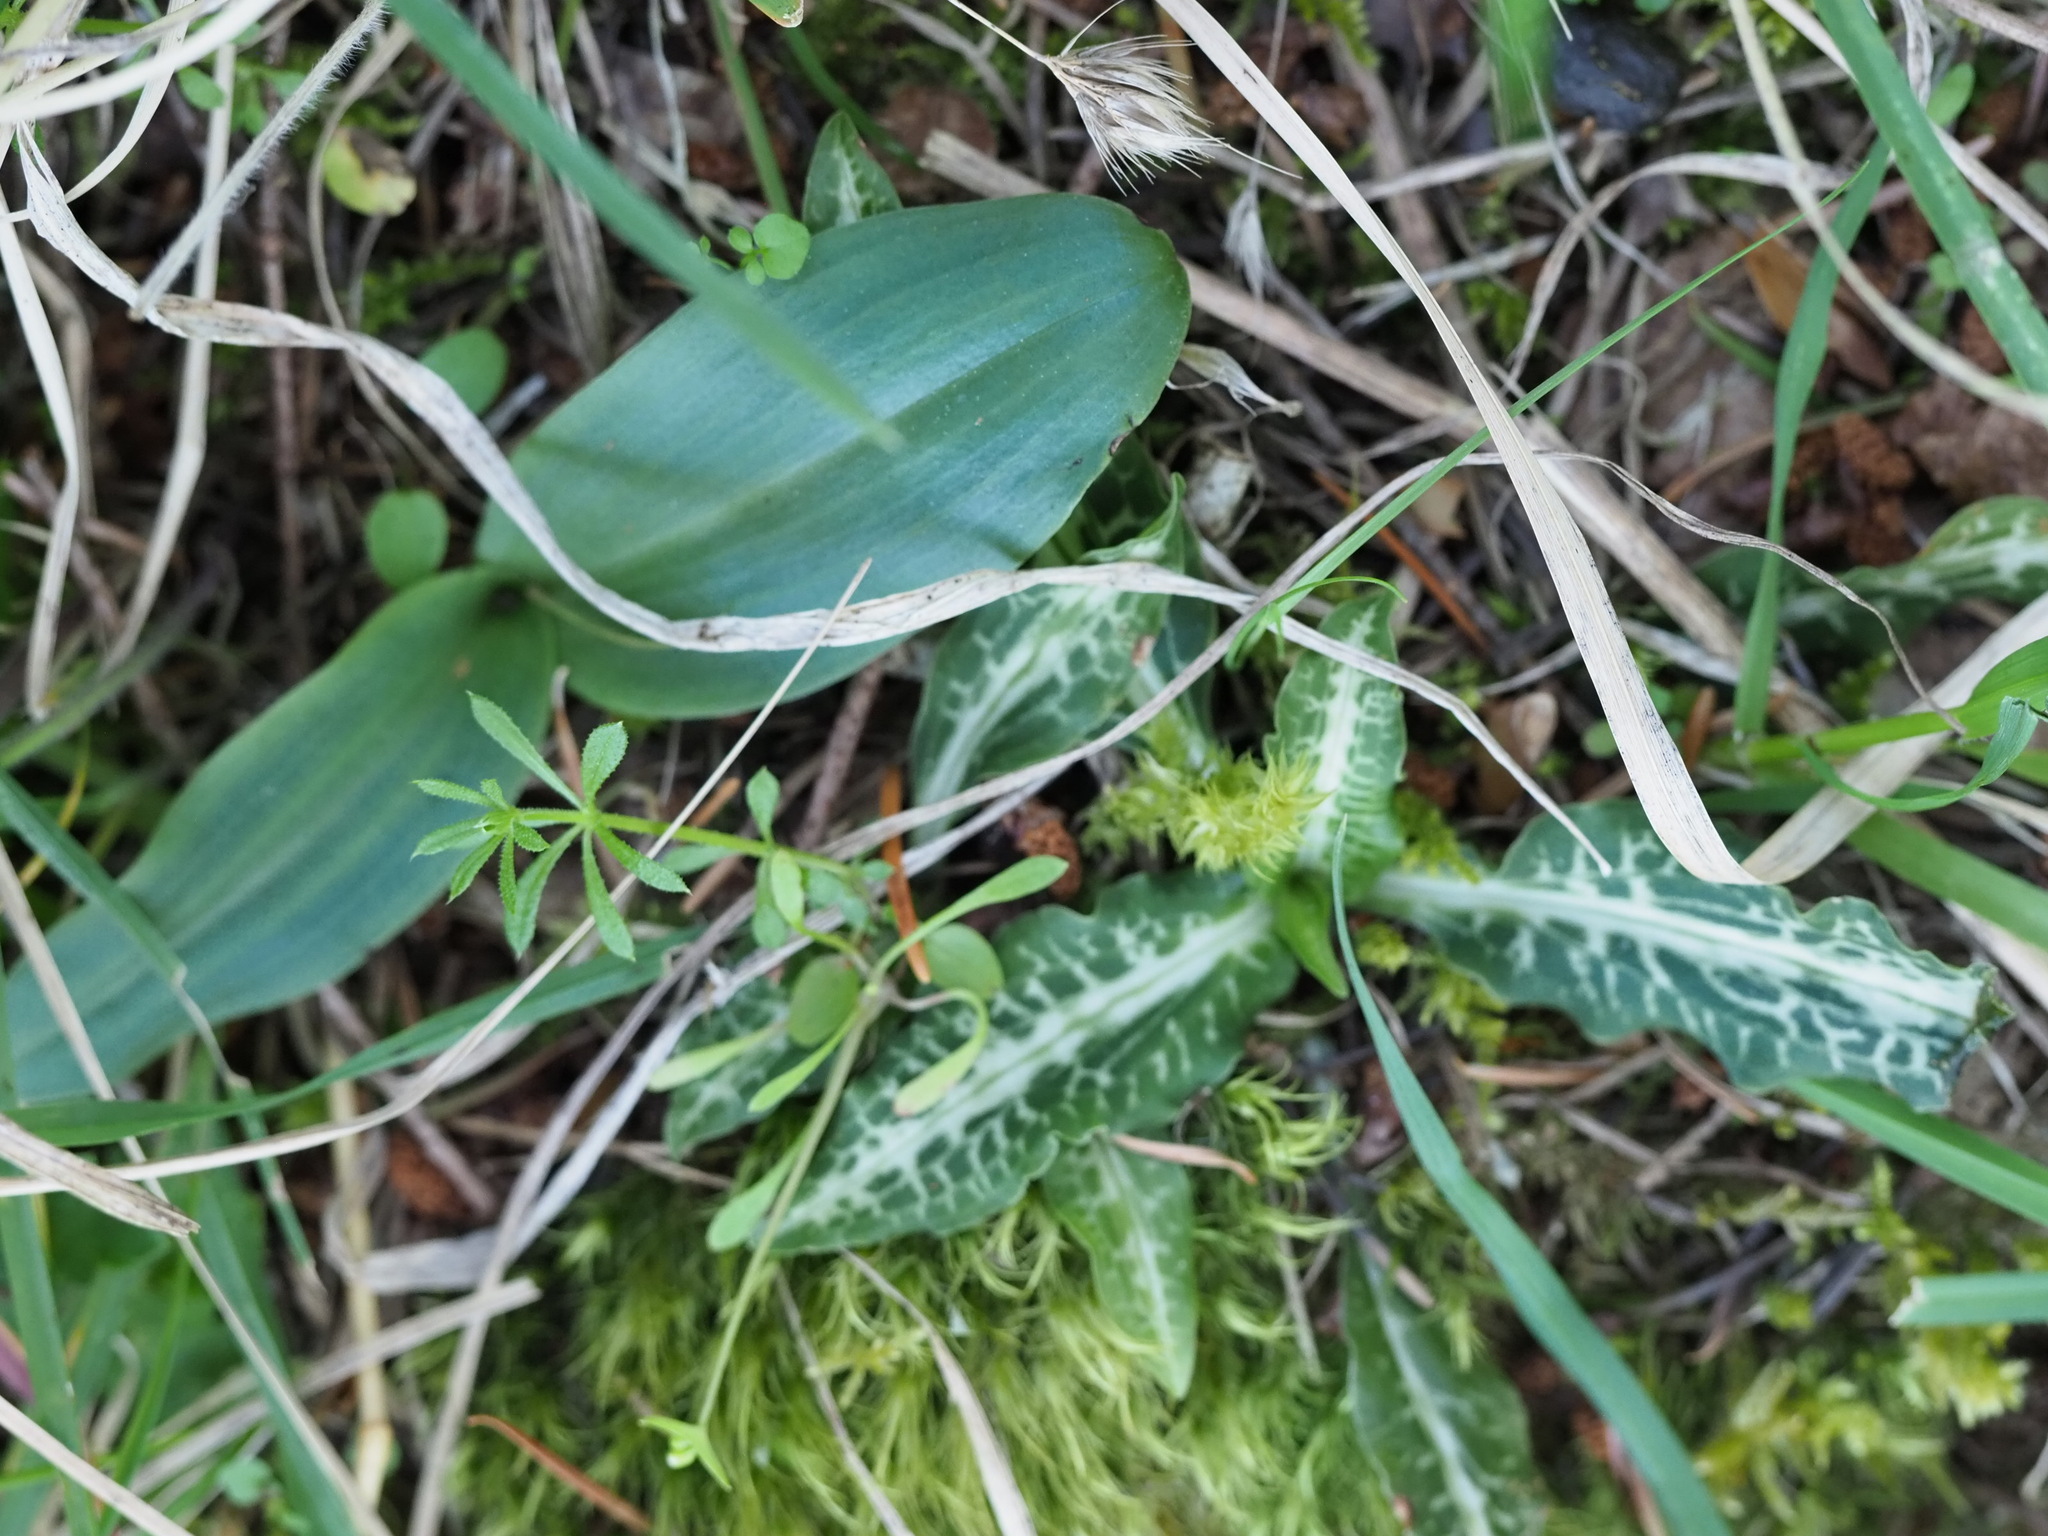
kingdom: Plantae
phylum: Tracheophyta
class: Liliopsida
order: Asparagales
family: Orchidaceae
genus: Goodyera
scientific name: Goodyera oblongifolia
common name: Giant rattlesnake-plantain
